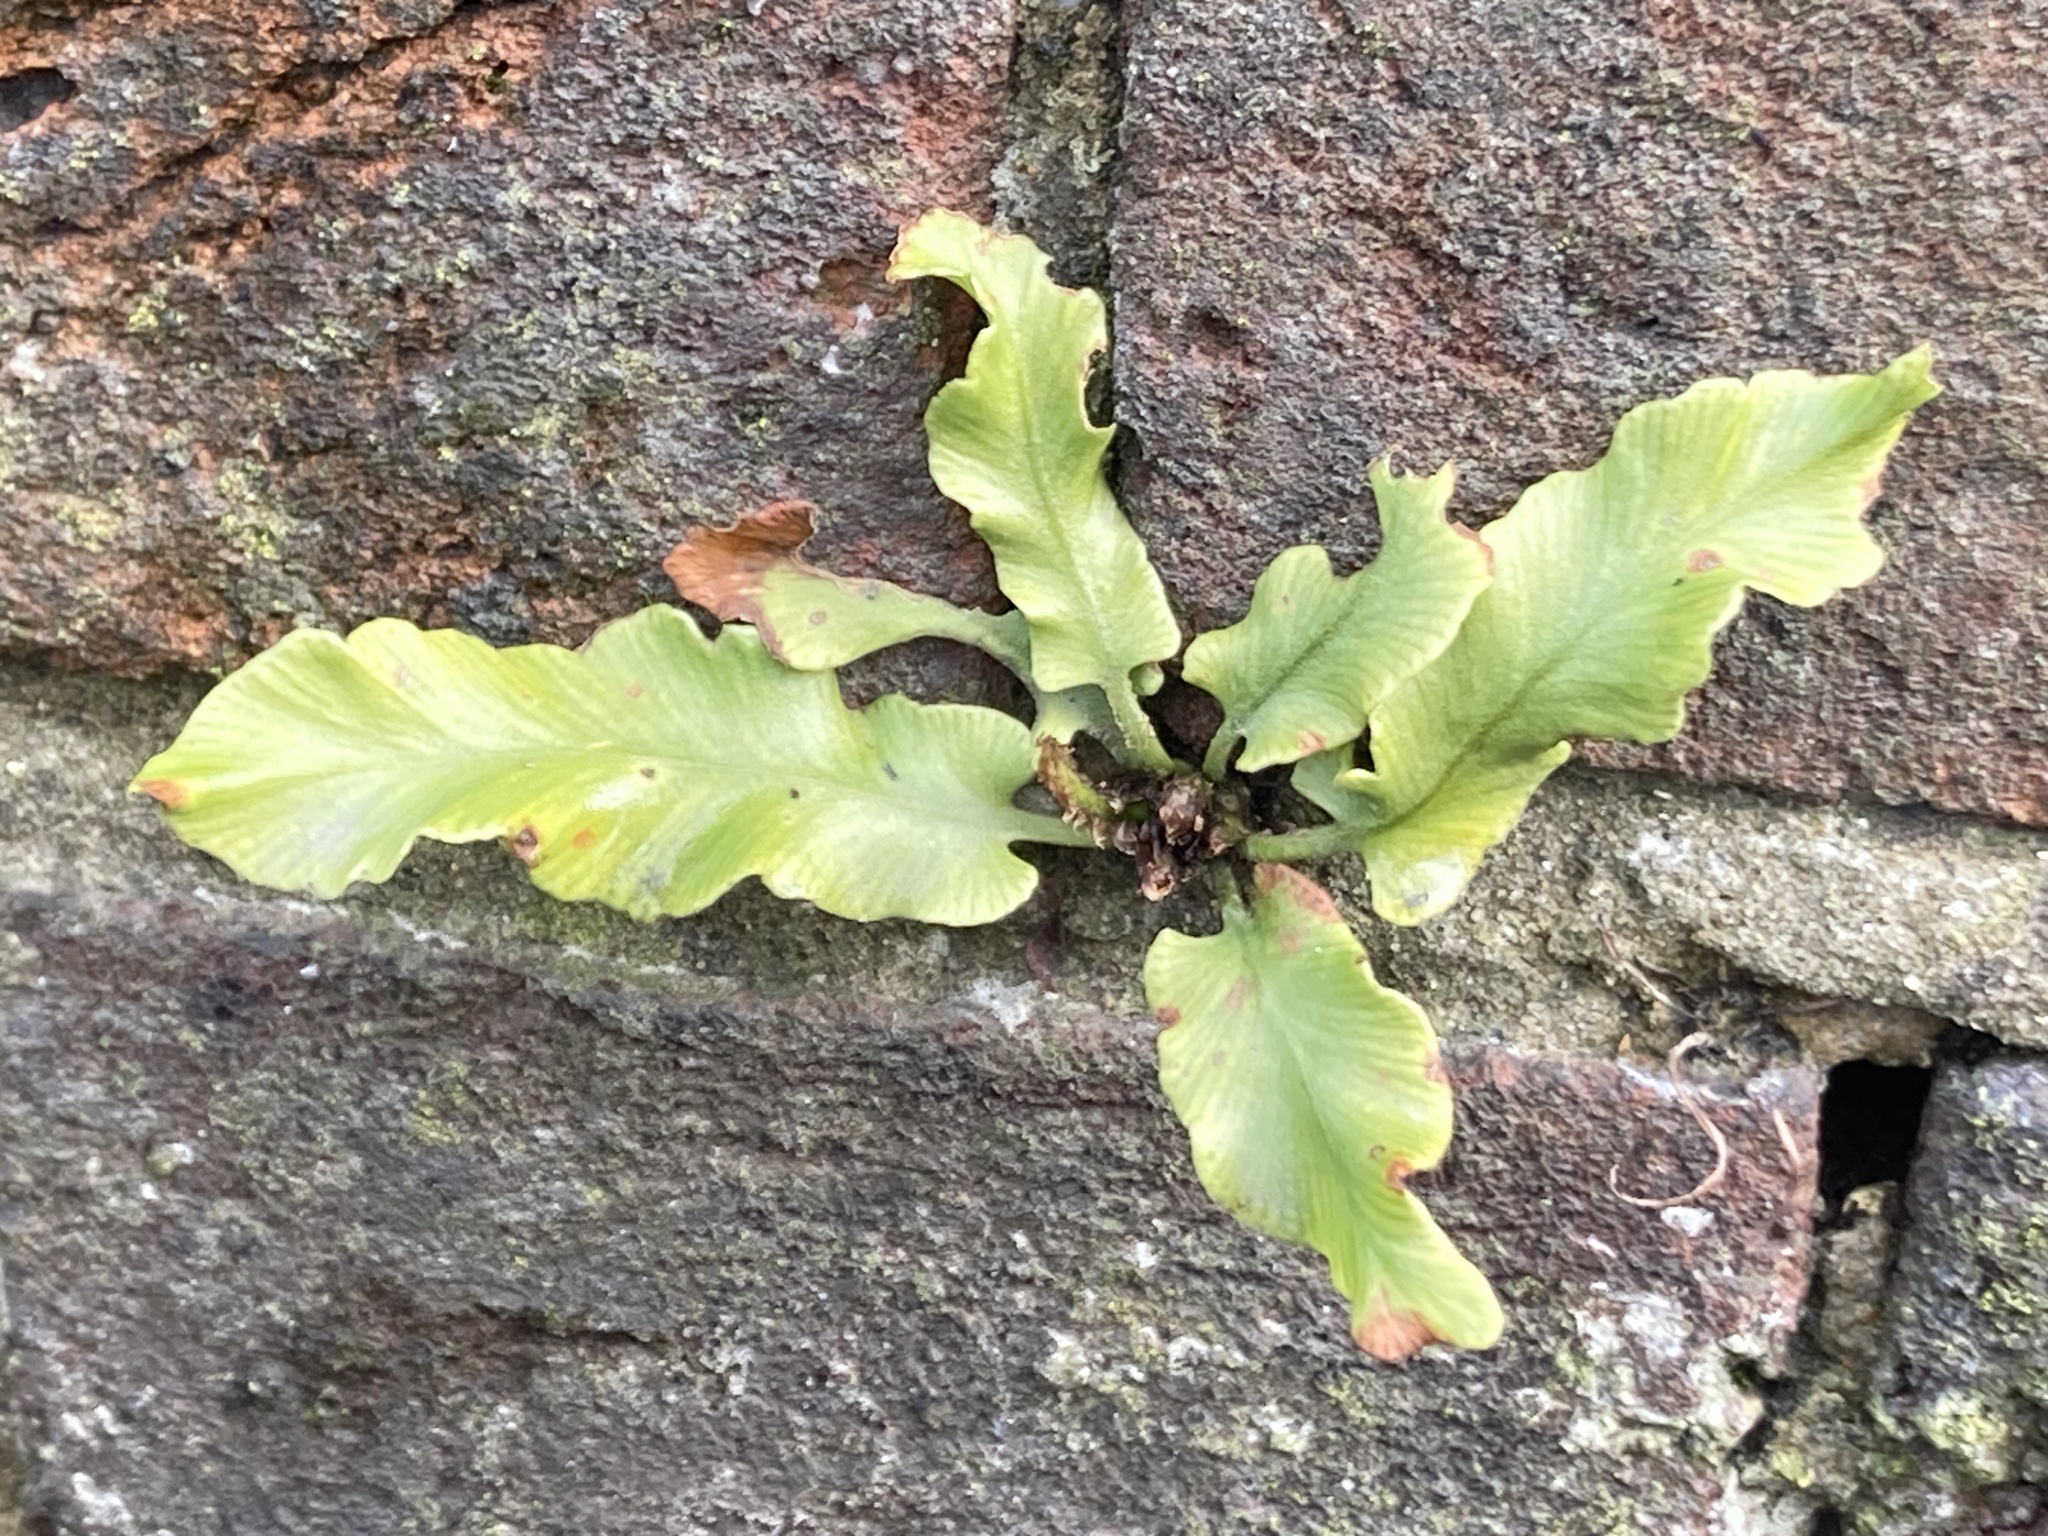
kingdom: Plantae
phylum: Tracheophyta
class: Polypodiopsida
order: Polypodiales
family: Aspleniaceae
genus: Asplenium
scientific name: Asplenium scolopendrium
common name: Hart's-tongue fern
